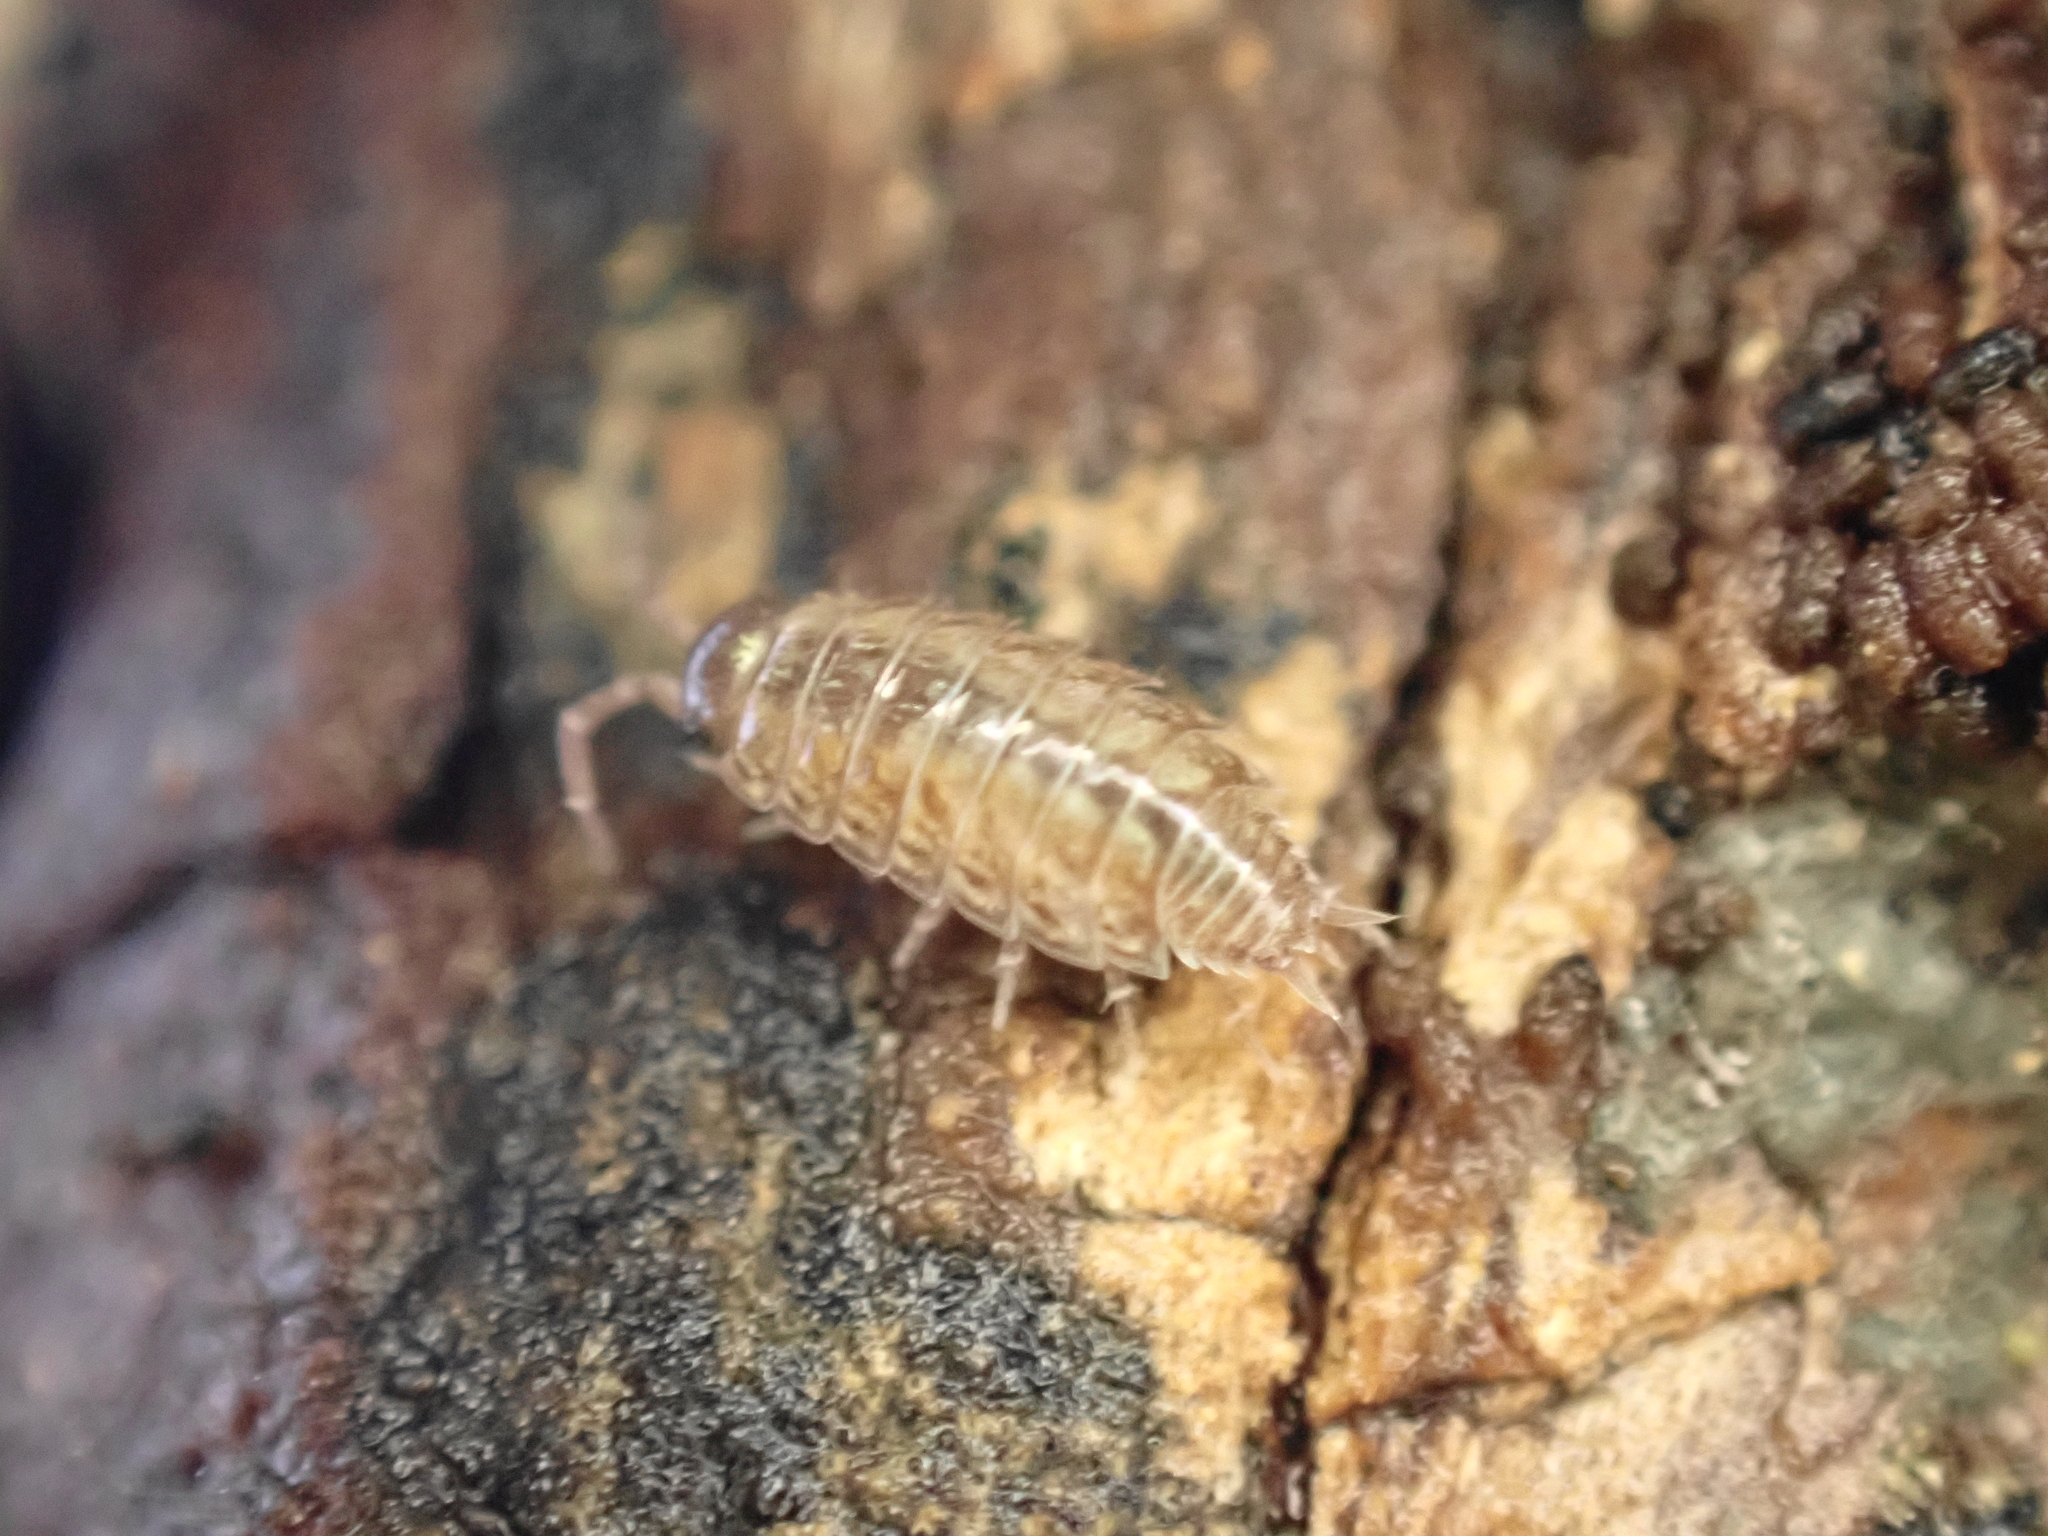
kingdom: Animalia
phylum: Arthropoda
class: Malacostraca
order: Isopoda
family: Philosciidae
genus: Philoscia
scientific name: Philoscia muscorum
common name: Common striped woodlouse
